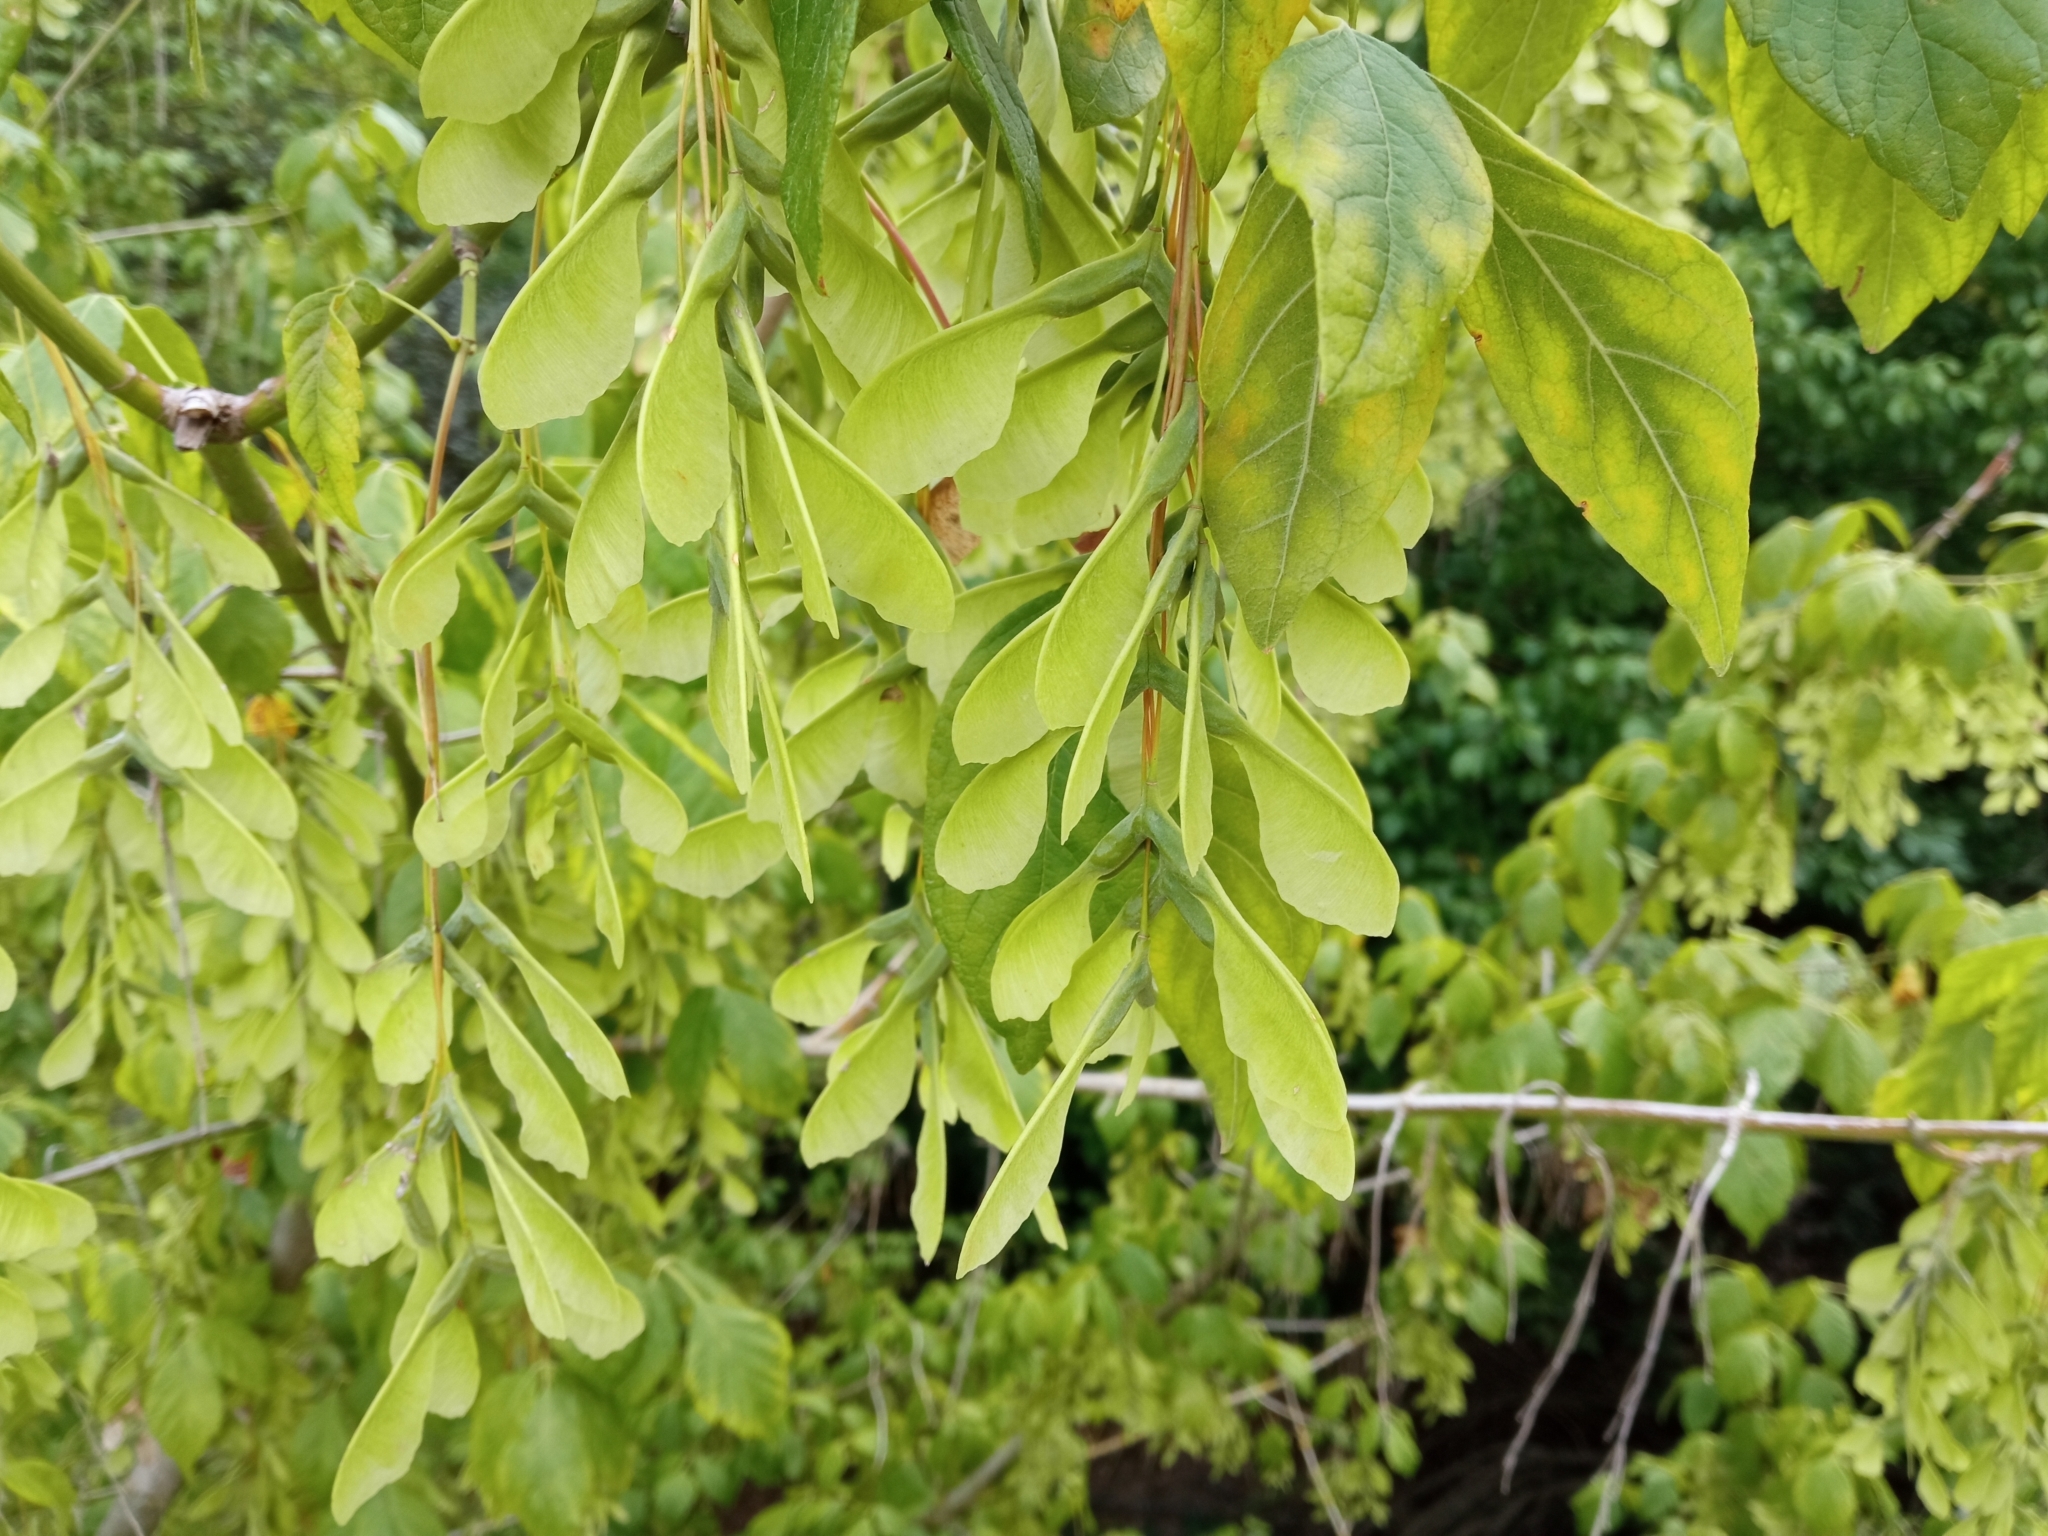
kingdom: Plantae
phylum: Tracheophyta
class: Magnoliopsida
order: Sapindales
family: Sapindaceae
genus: Acer
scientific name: Acer negundo
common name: Ashleaf maple
